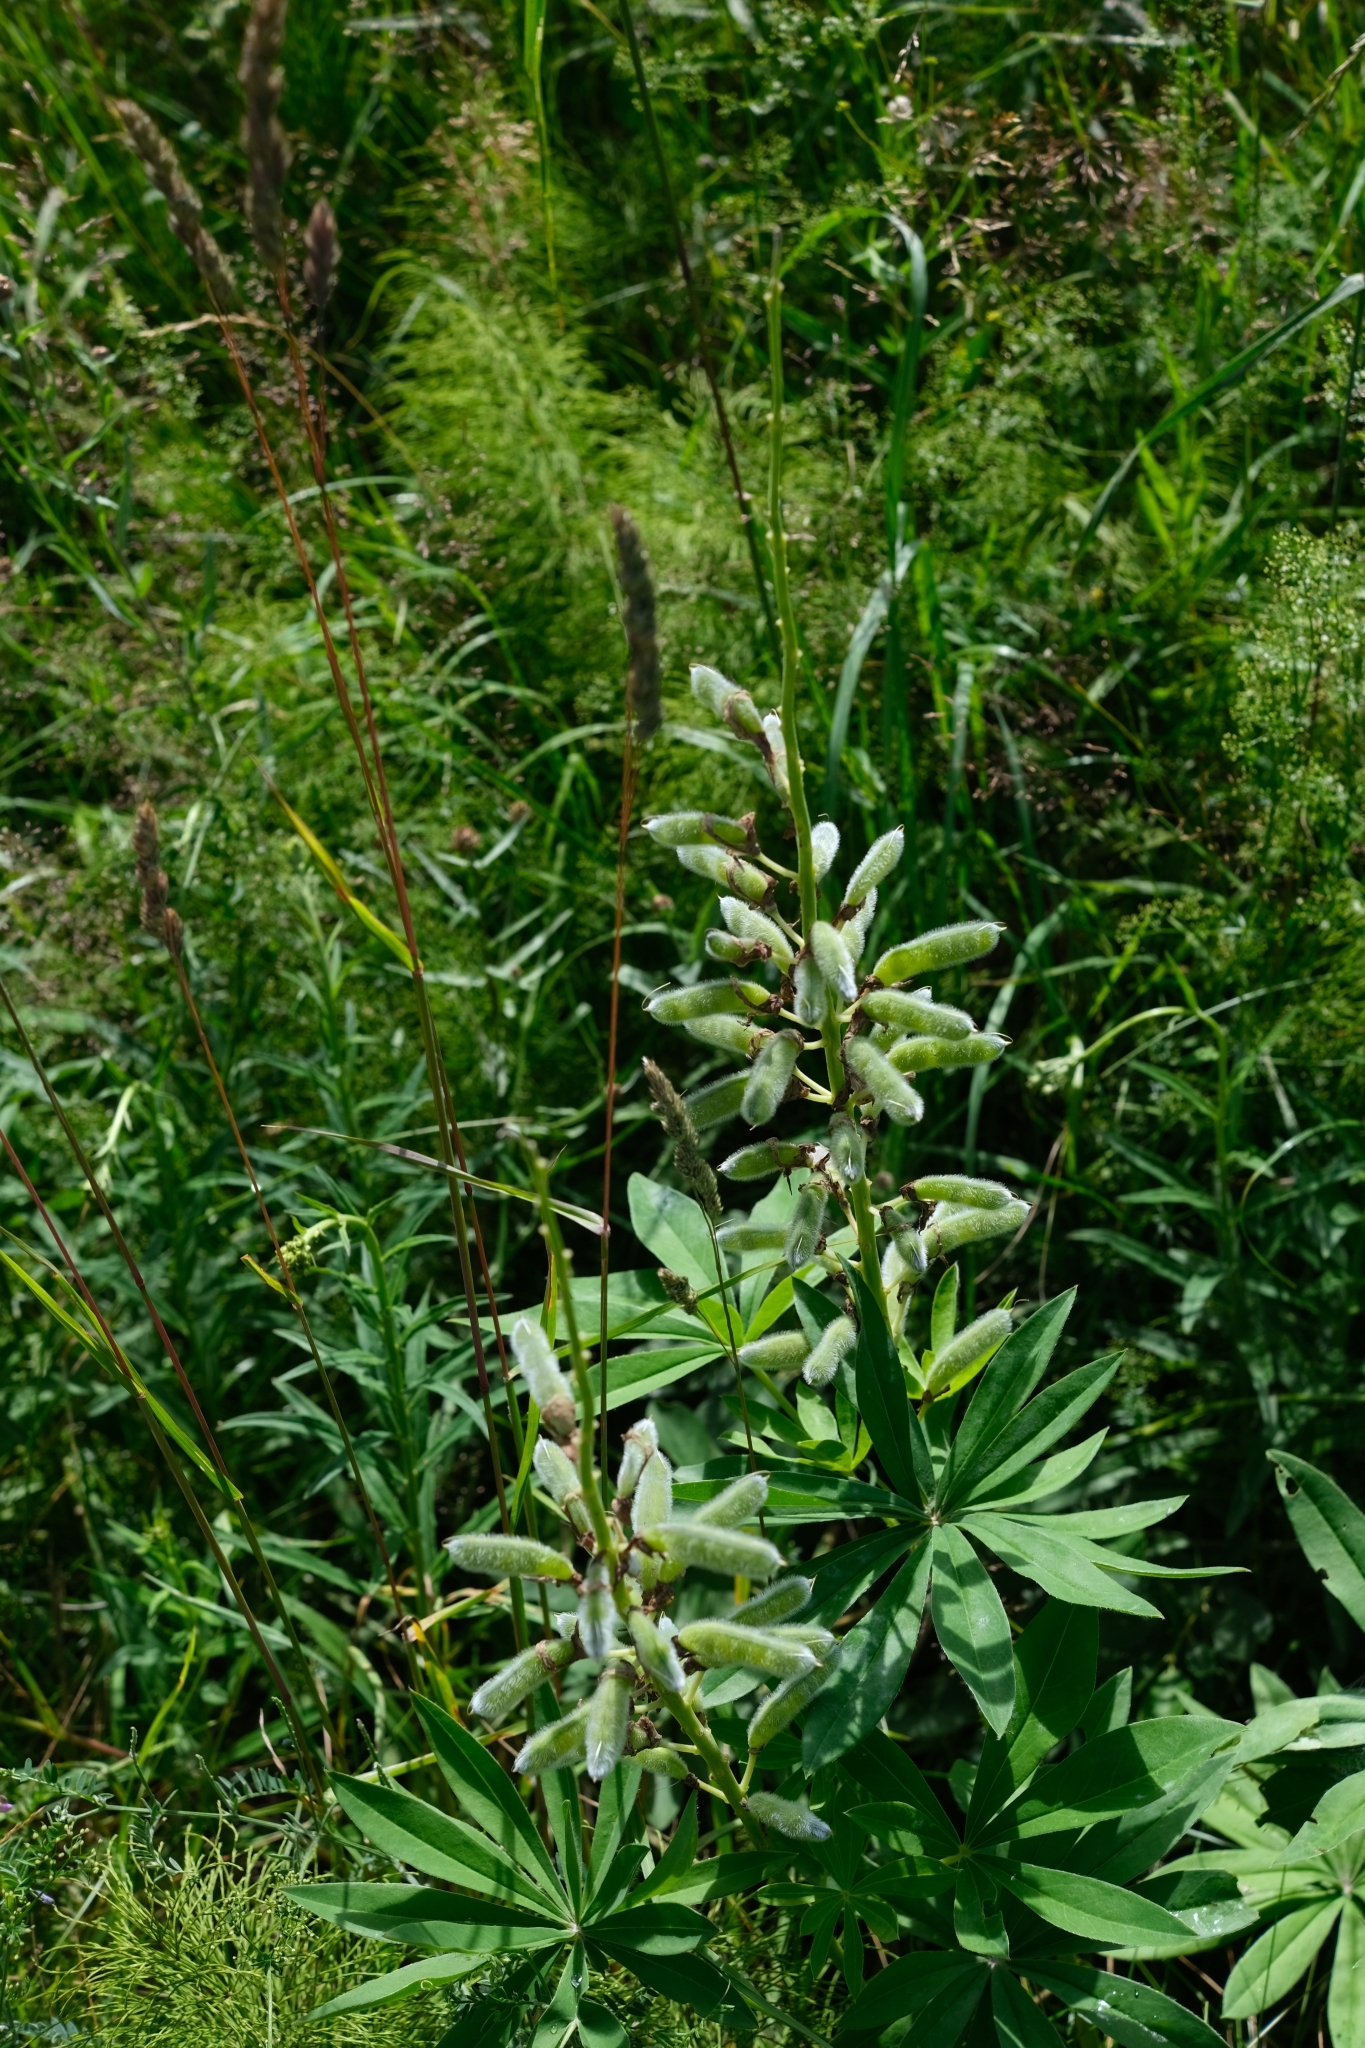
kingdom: Plantae
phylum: Tracheophyta
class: Magnoliopsida
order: Fabales
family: Fabaceae
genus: Lupinus
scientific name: Lupinus polyphyllus
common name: Garden lupin
